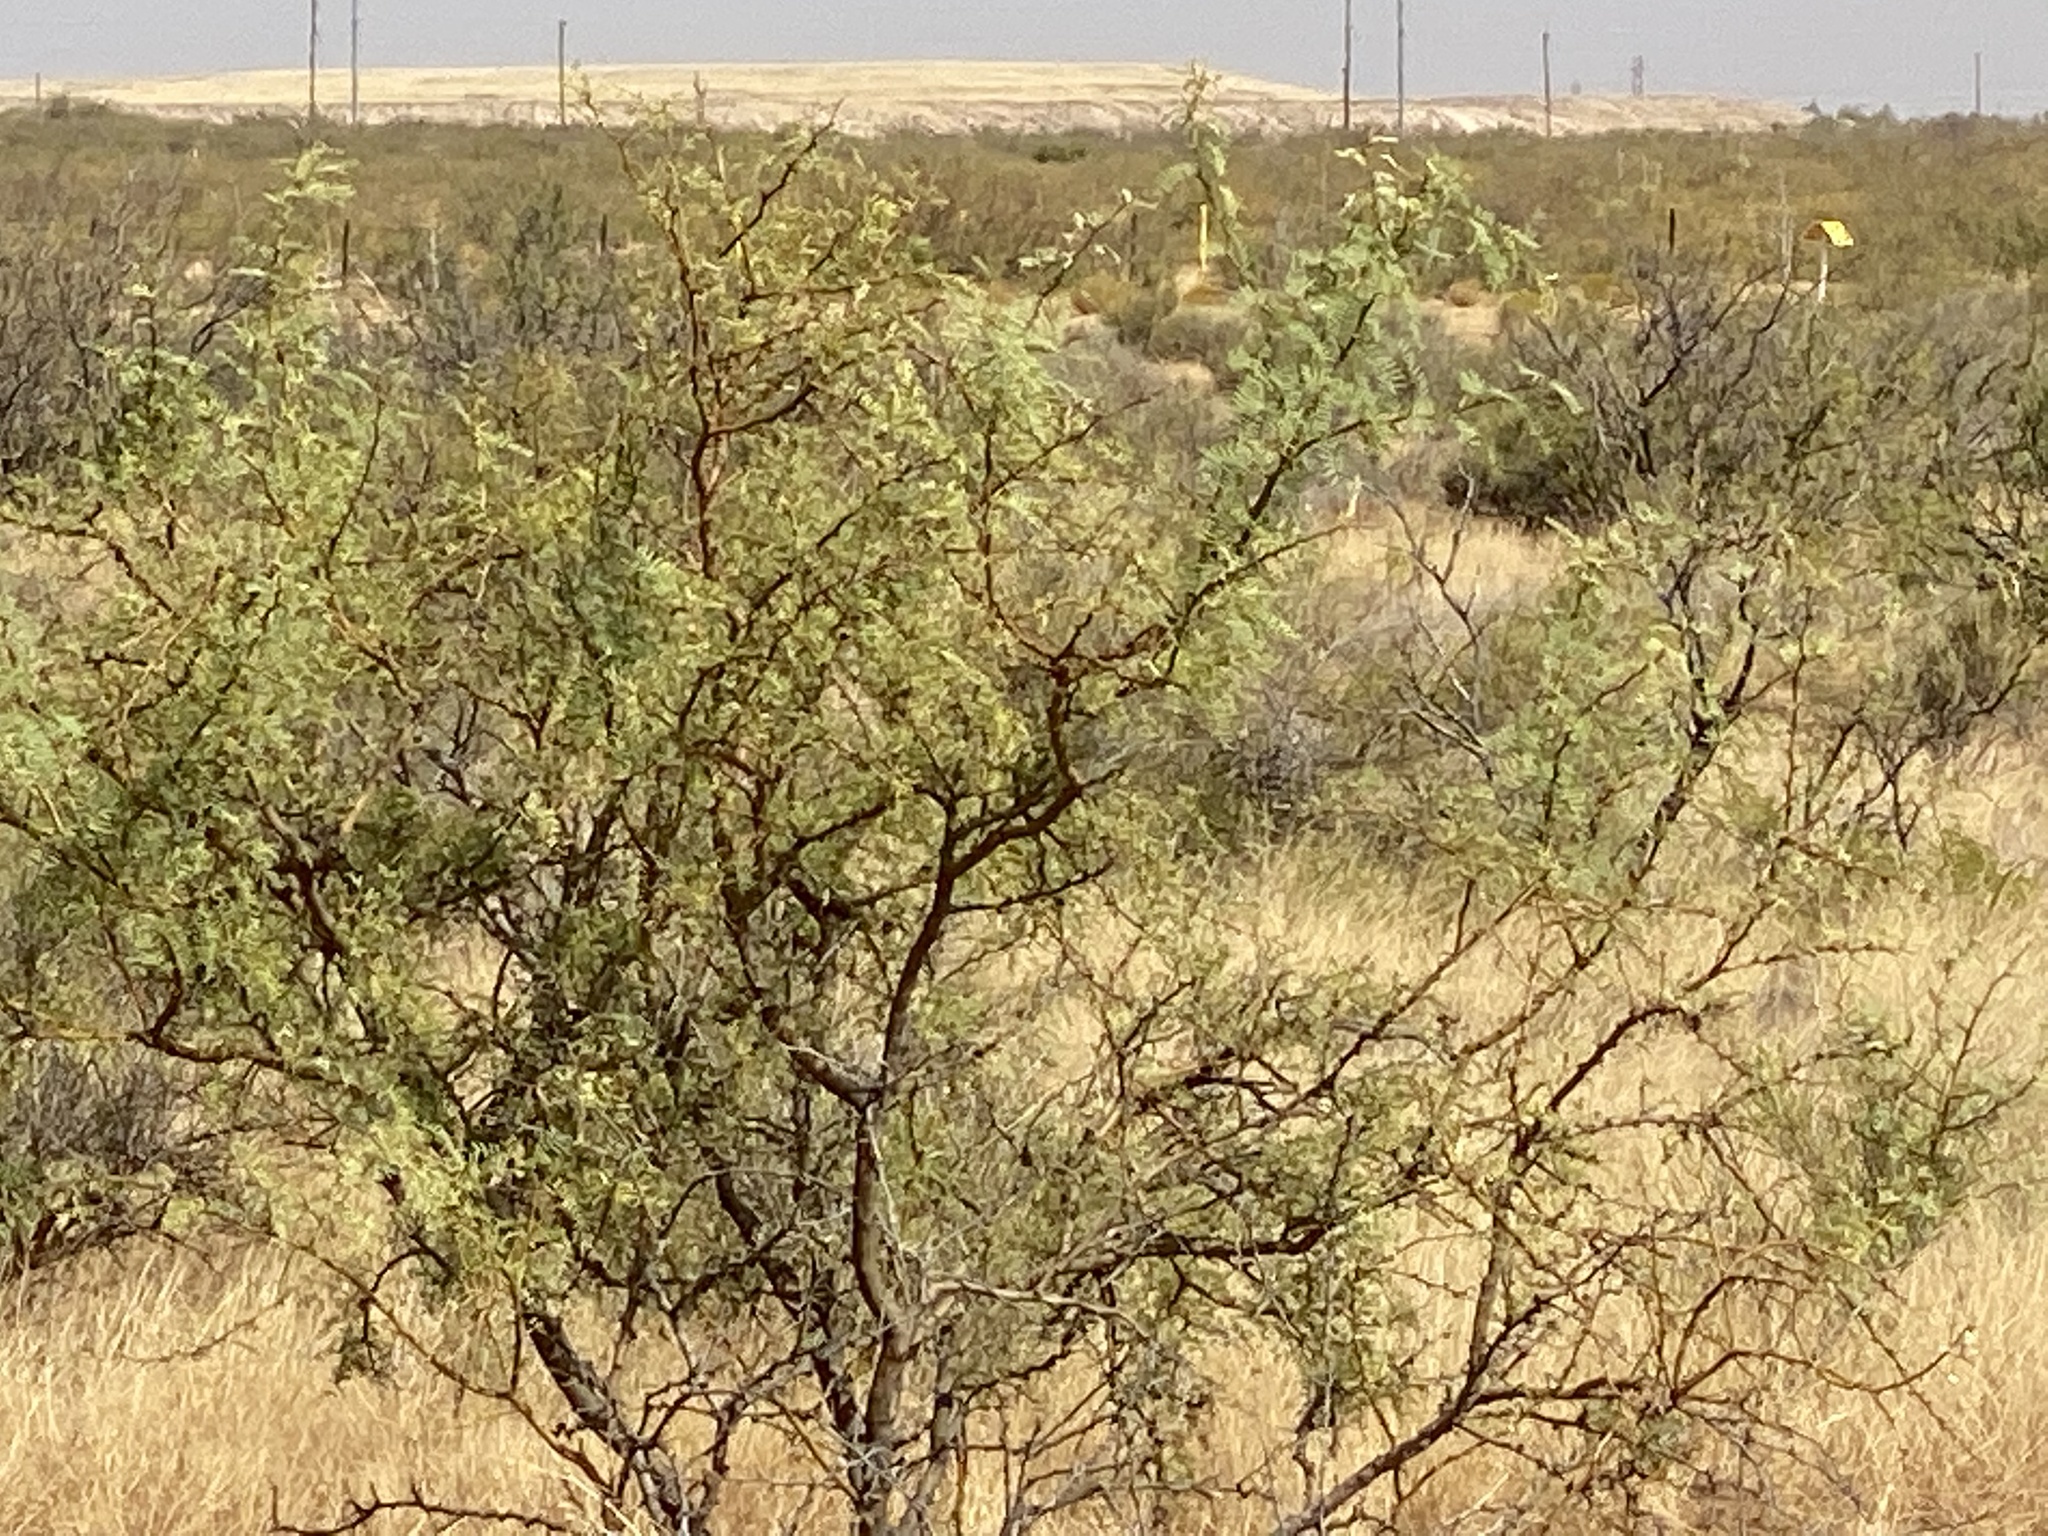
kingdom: Plantae
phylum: Tracheophyta
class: Magnoliopsida
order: Fabales
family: Fabaceae
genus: Prosopis
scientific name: Prosopis glandulosa
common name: Honey mesquite
